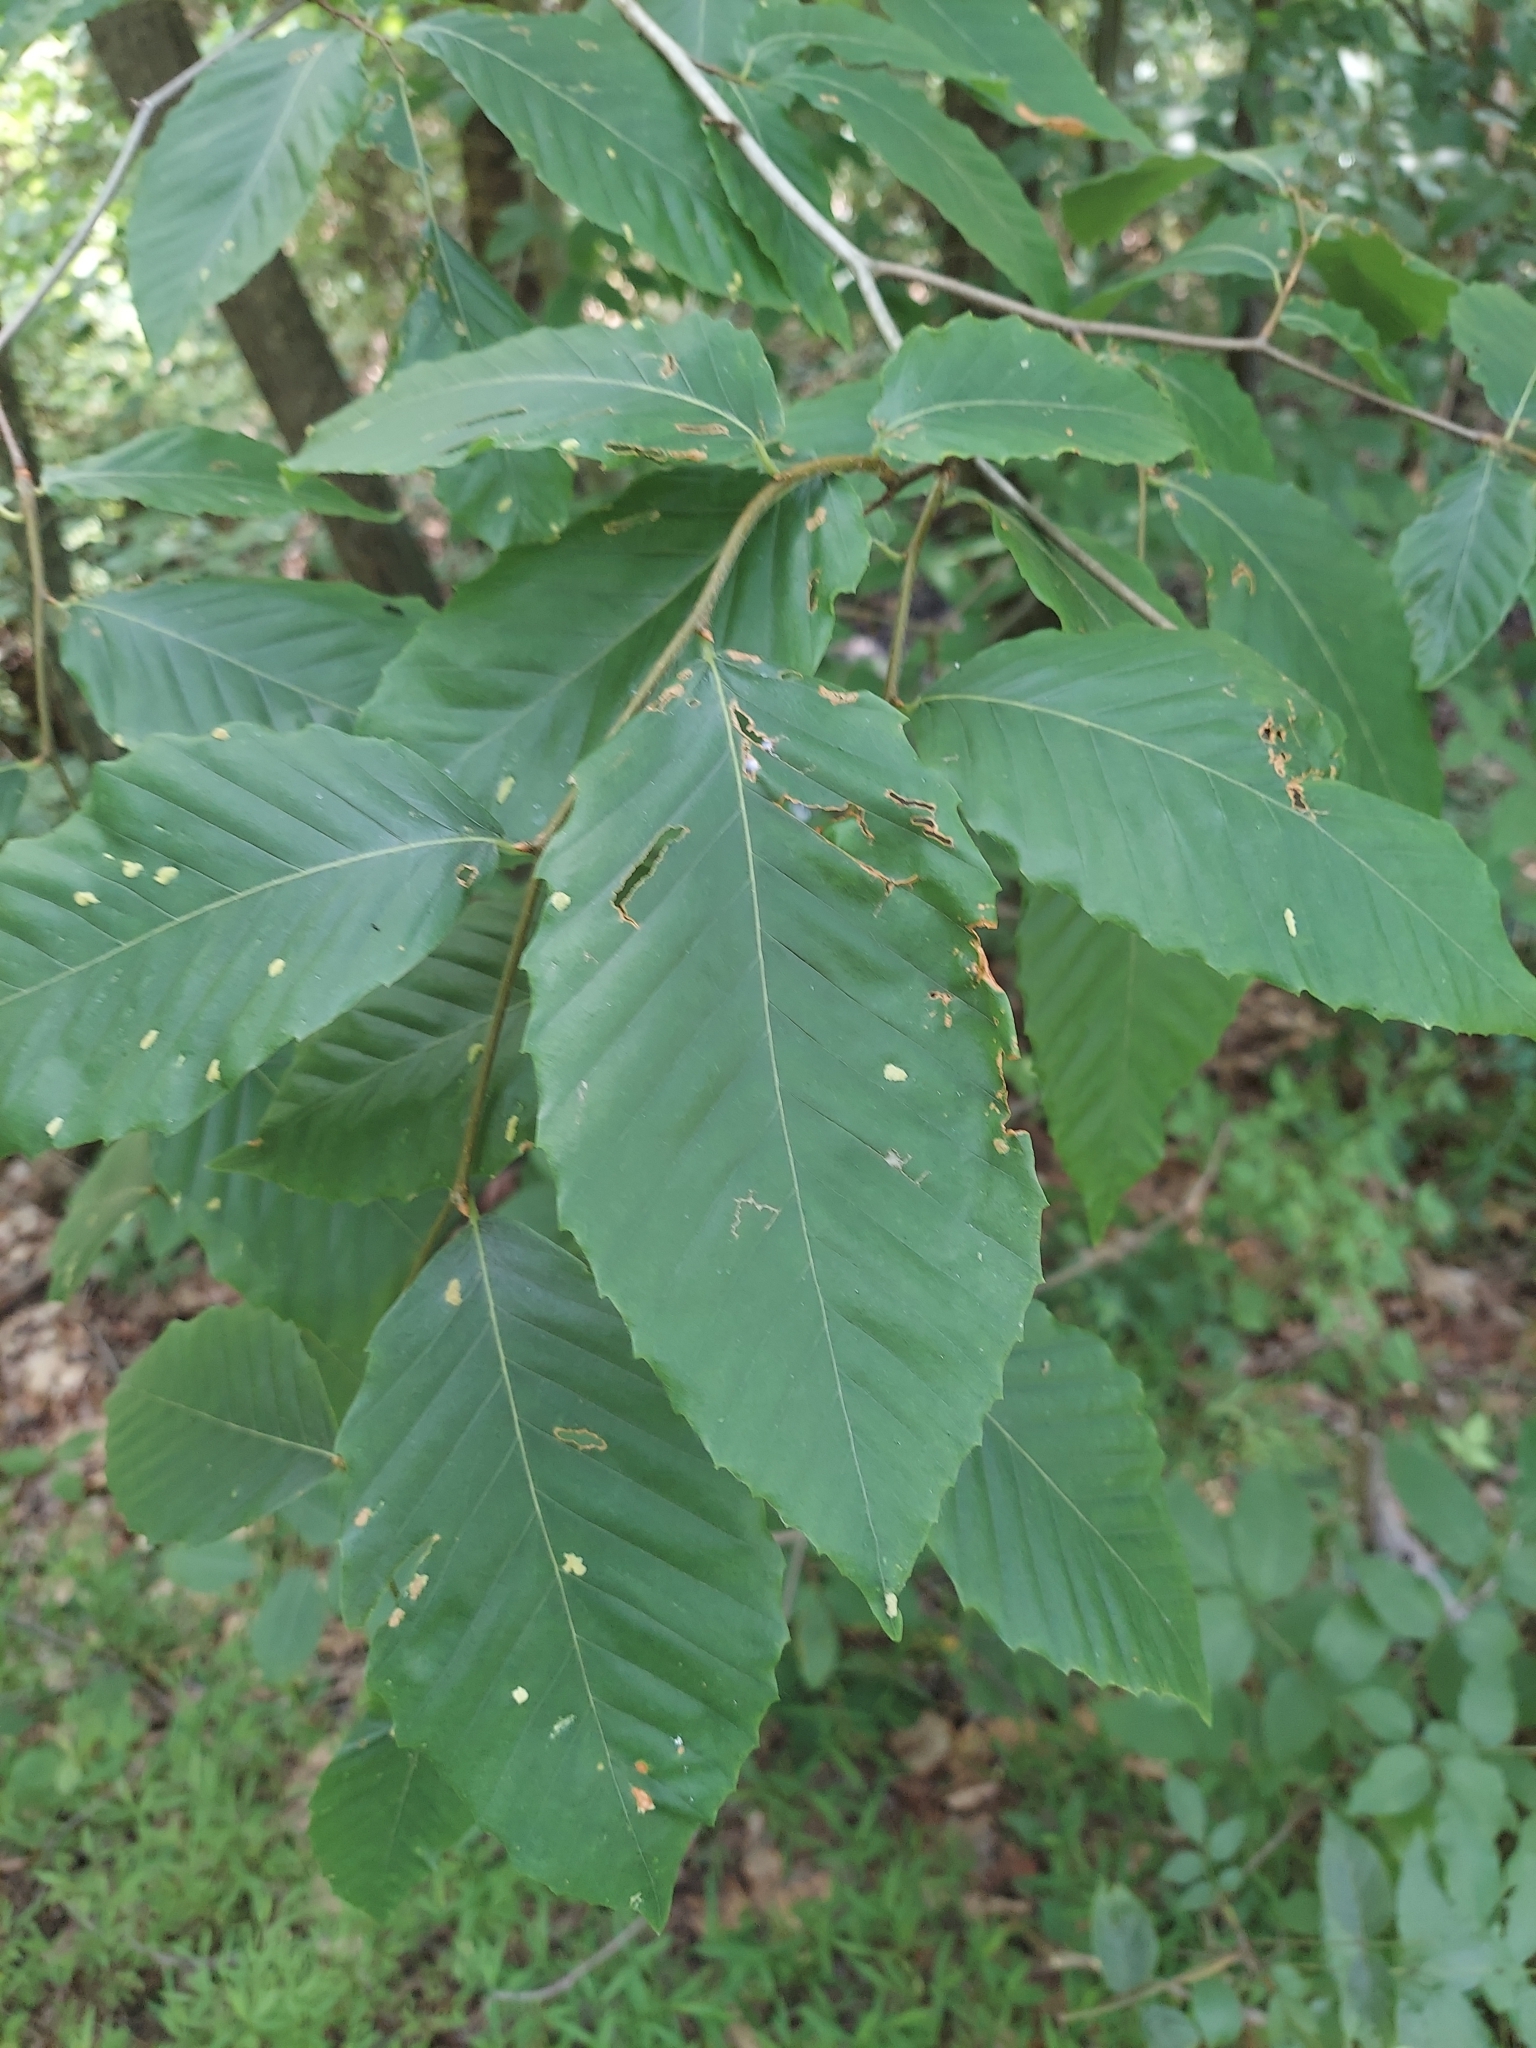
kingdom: Plantae
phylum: Tracheophyta
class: Magnoliopsida
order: Fagales
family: Fagaceae
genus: Fagus
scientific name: Fagus grandifolia
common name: American beech
